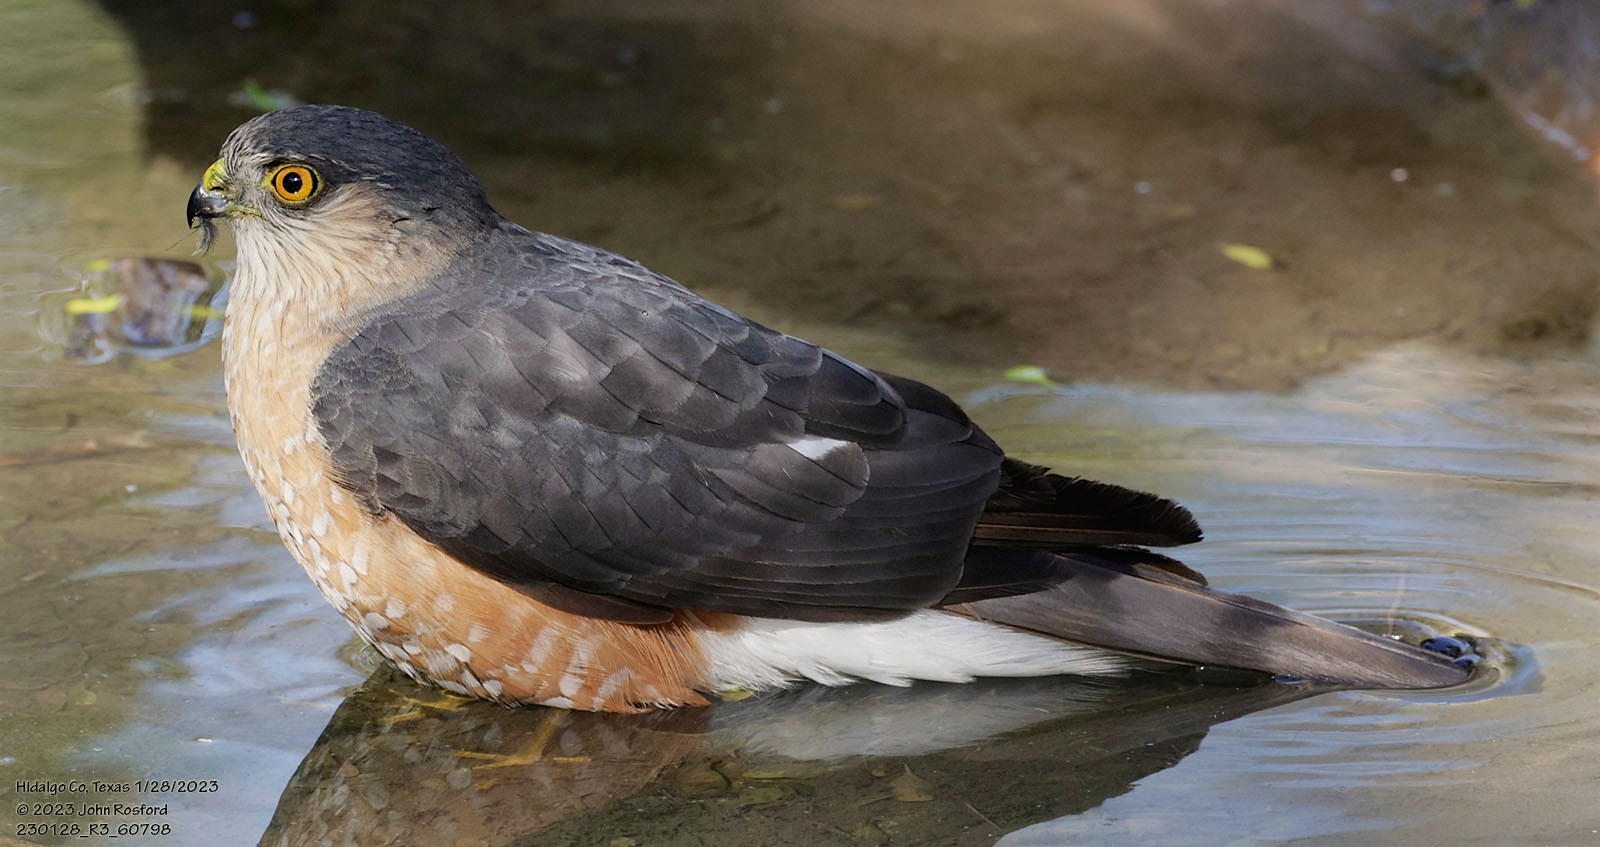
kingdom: Animalia
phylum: Chordata
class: Aves
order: Accipitriformes
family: Accipitridae
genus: Accipiter
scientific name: Accipiter striatus
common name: Sharp-shinned hawk
